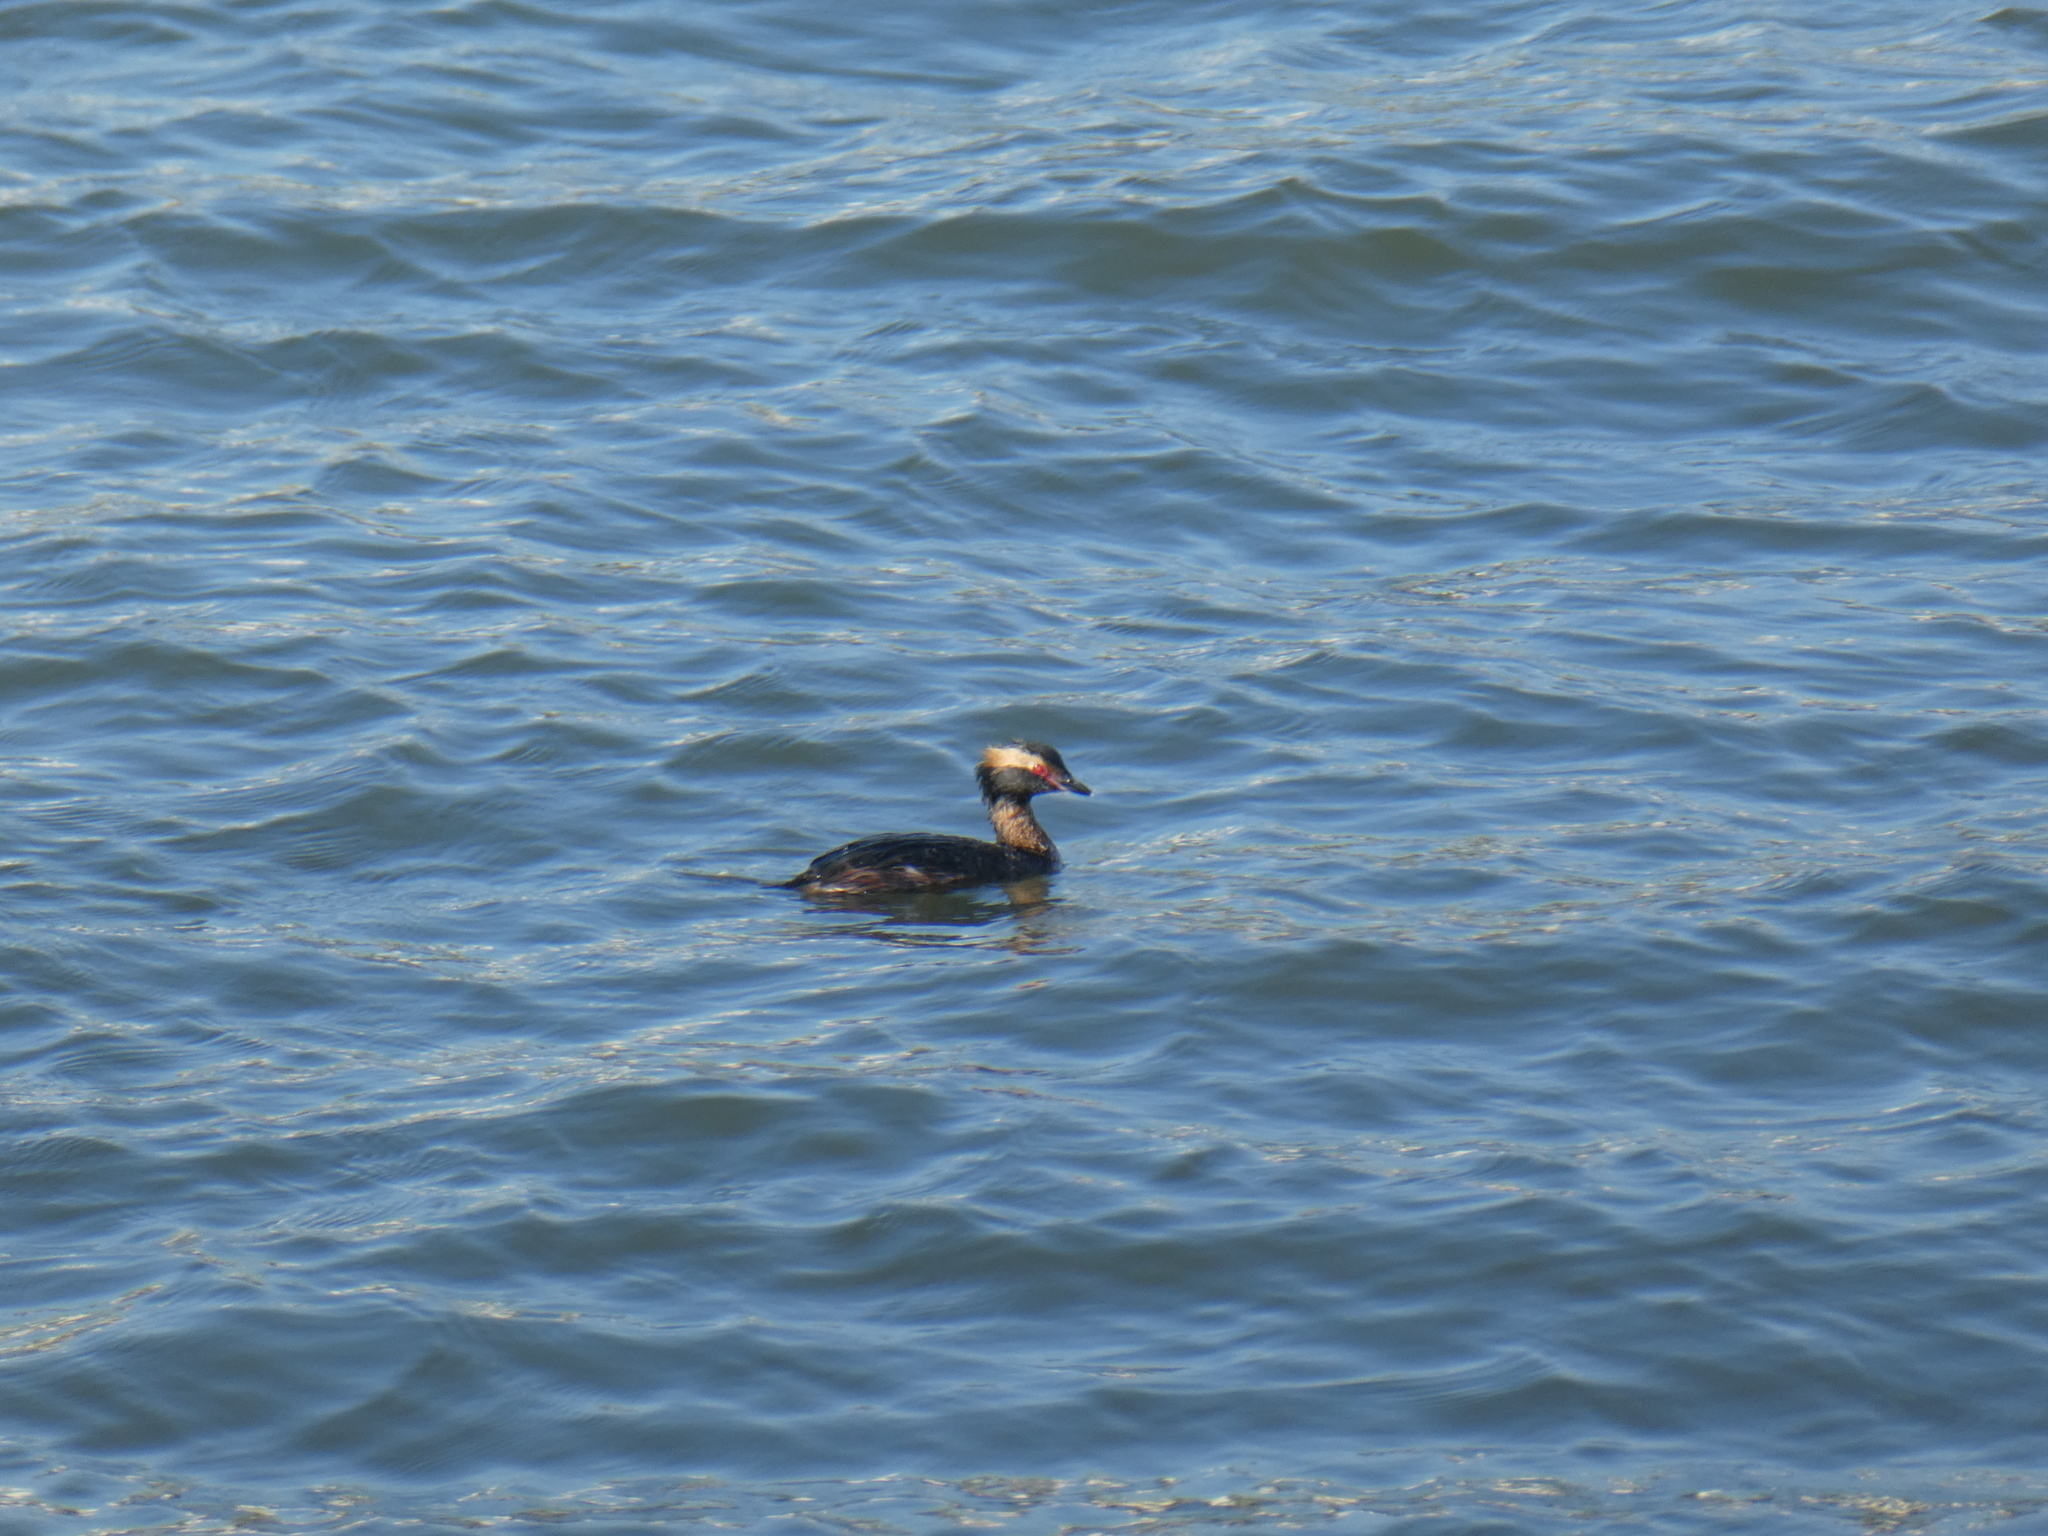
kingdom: Animalia
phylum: Chordata
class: Aves
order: Podicipediformes
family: Podicipedidae
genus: Podiceps
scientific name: Podiceps auritus
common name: Horned grebe
